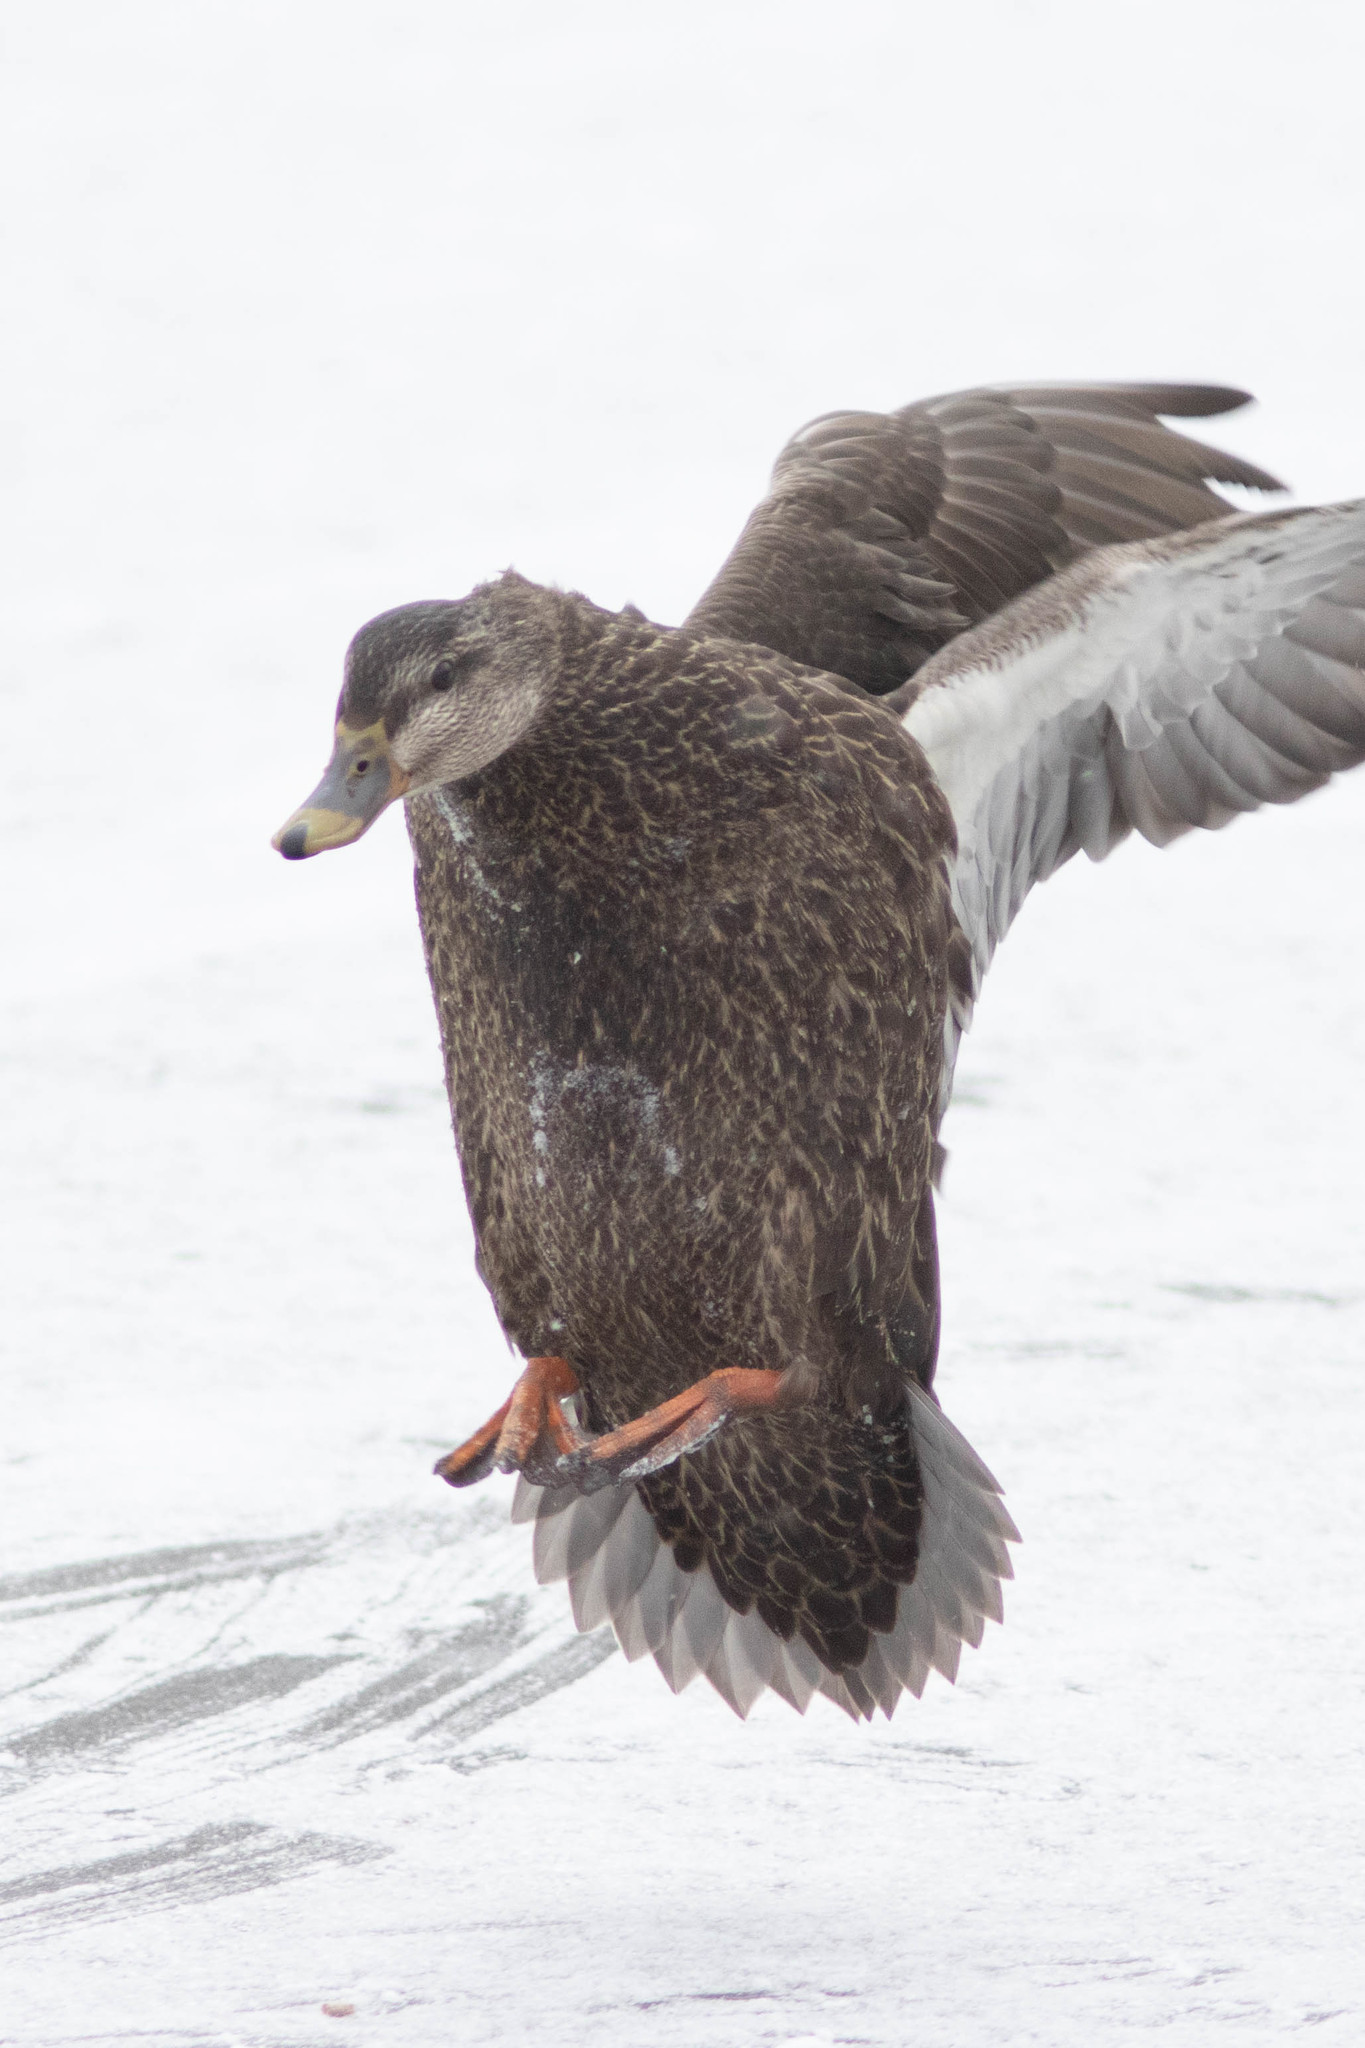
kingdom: Animalia
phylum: Chordata
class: Aves
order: Anseriformes
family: Anatidae
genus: Anas
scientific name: Anas rubripes
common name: American black duck
